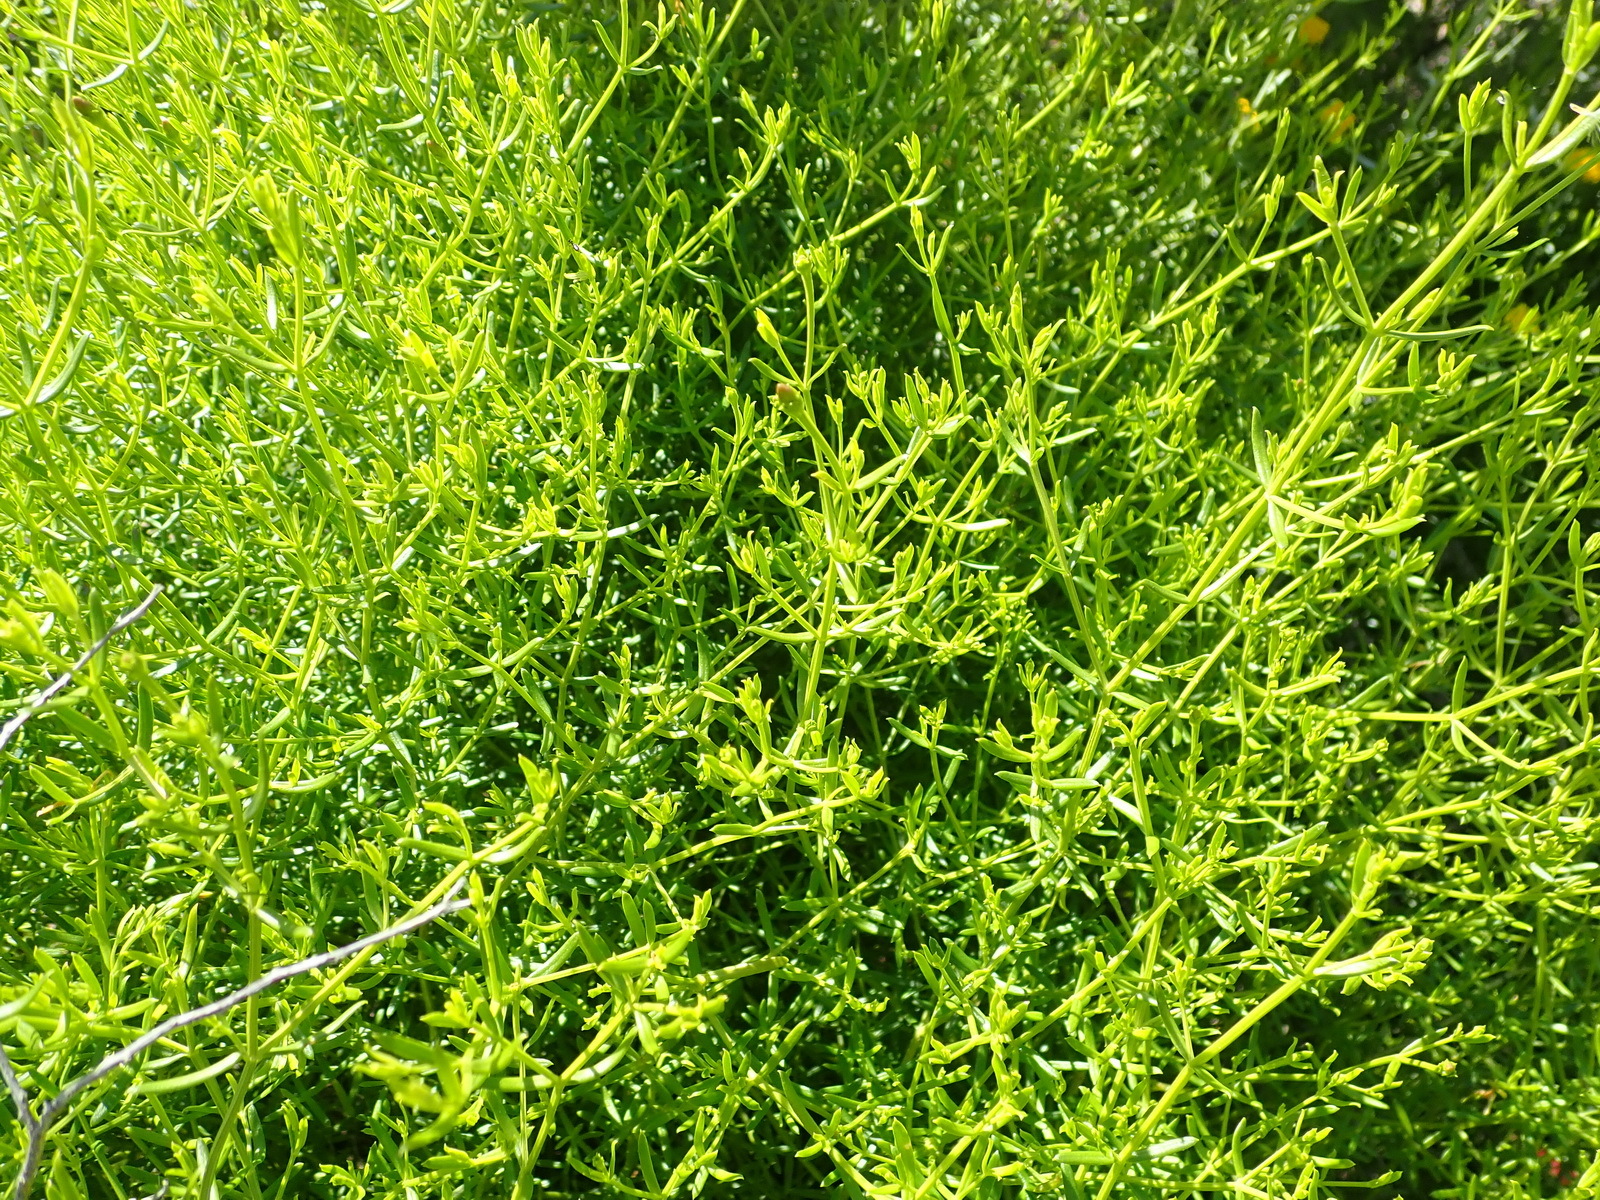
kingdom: Plantae
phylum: Tracheophyta
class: Magnoliopsida
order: Gentianales
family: Gentianaceae
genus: Chironia
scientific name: Chironia baccifera
